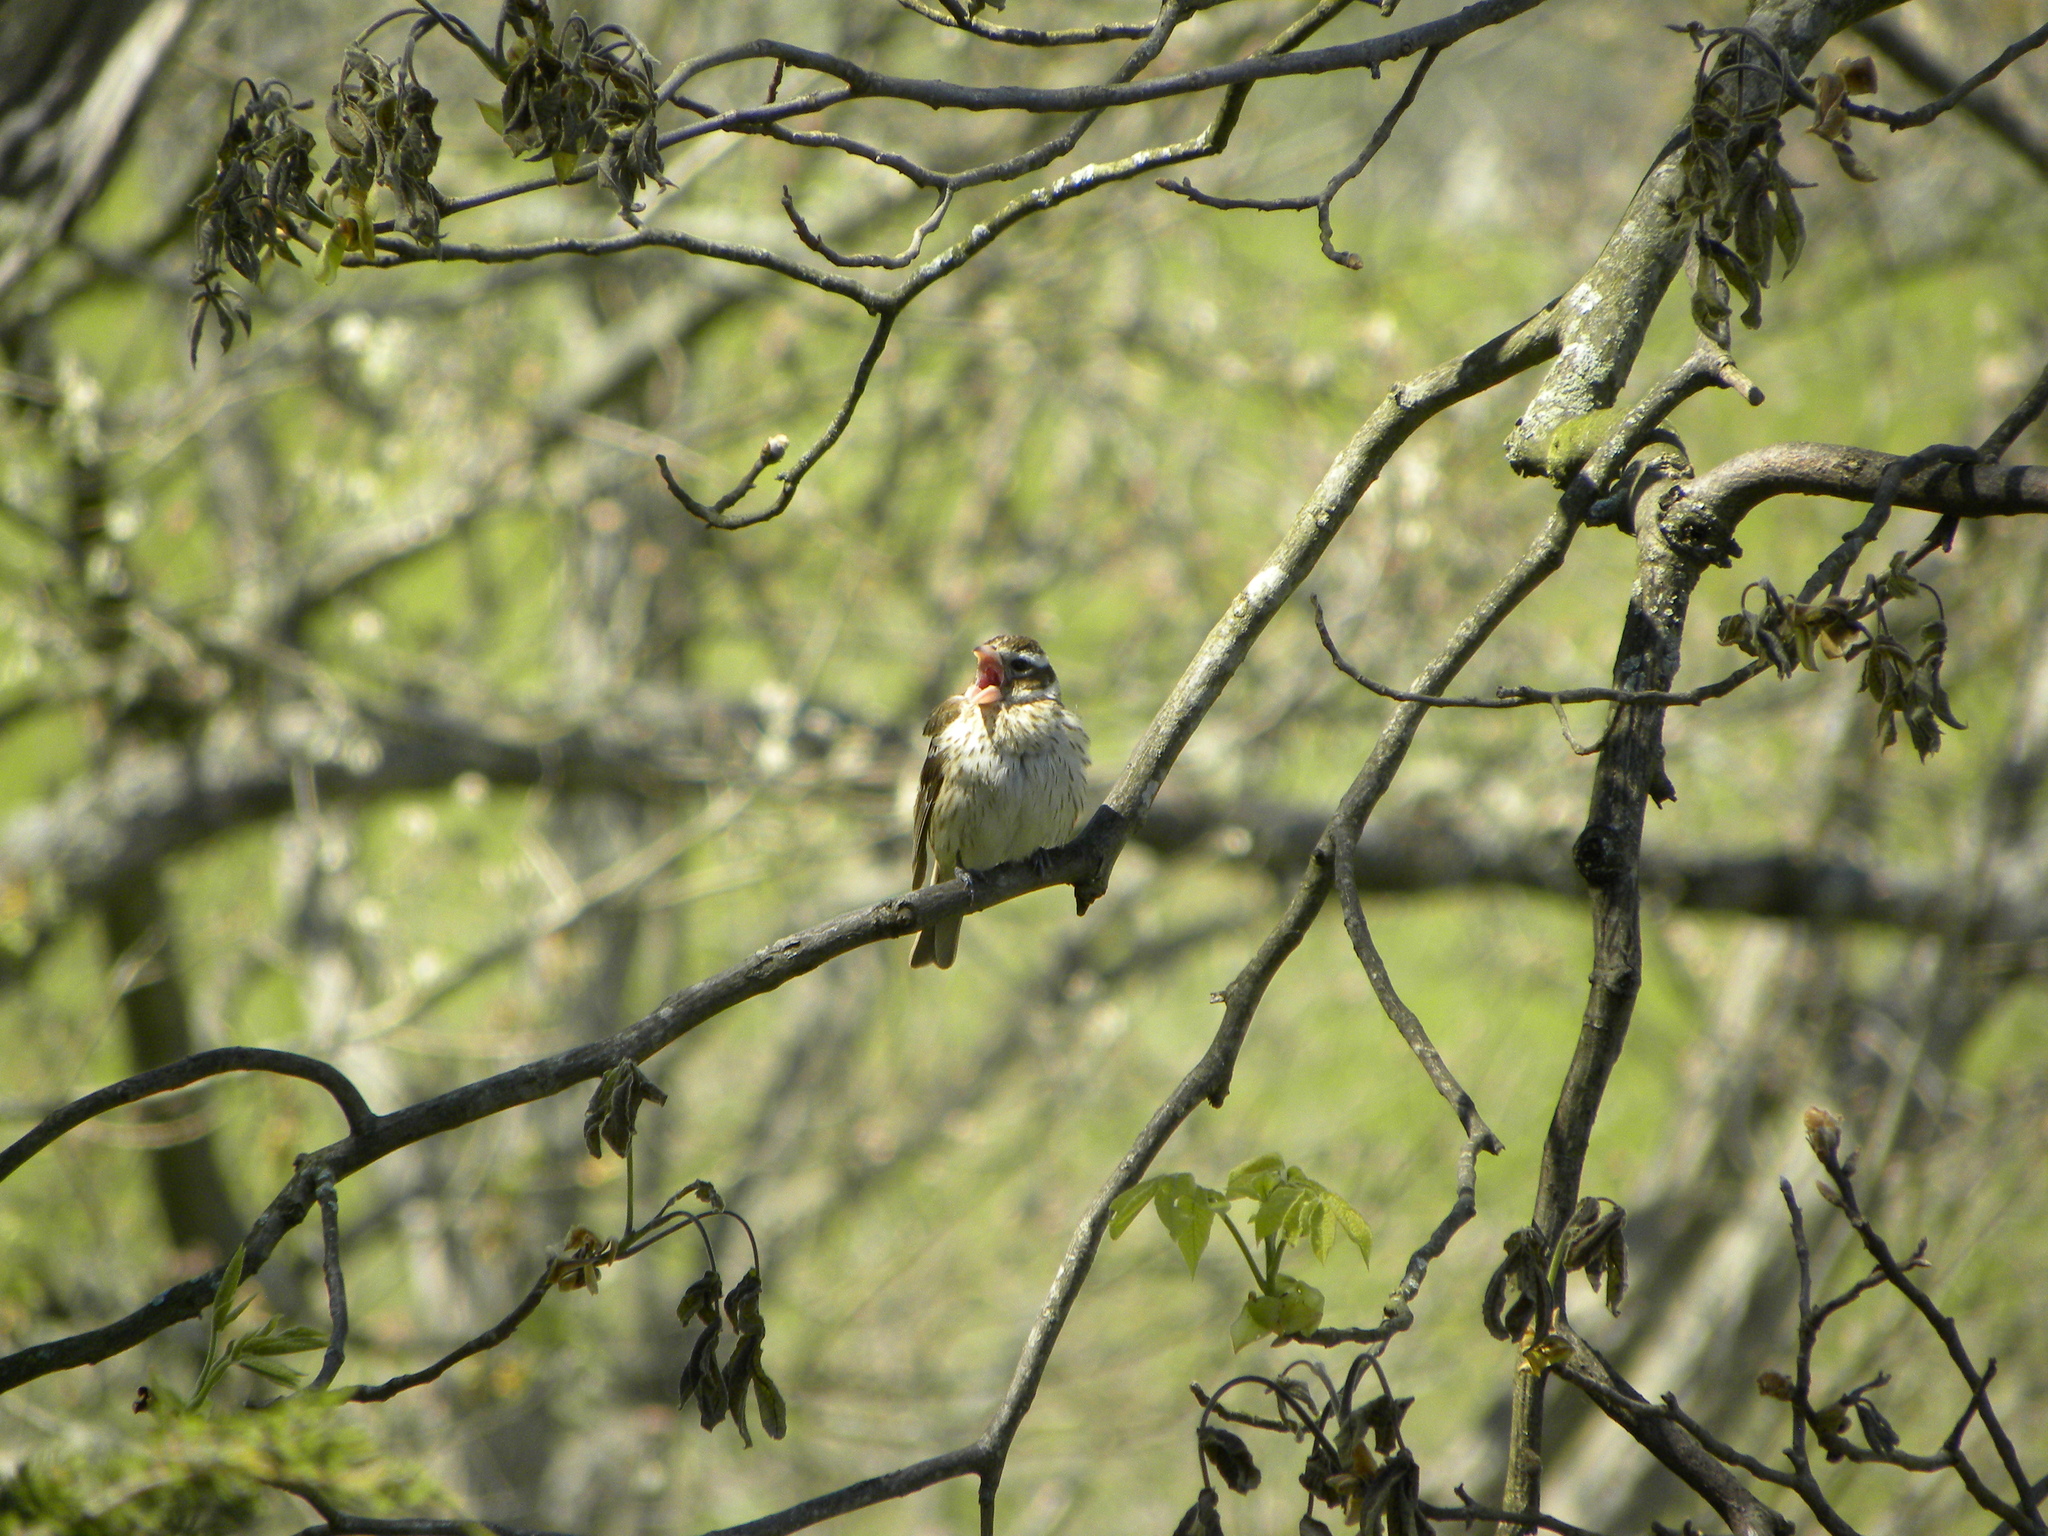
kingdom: Animalia
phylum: Chordata
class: Aves
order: Passeriformes
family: Cardinalidae
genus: Pheucticus
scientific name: Pheucticus ludovicianus
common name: Rose-breasted grosbeak
